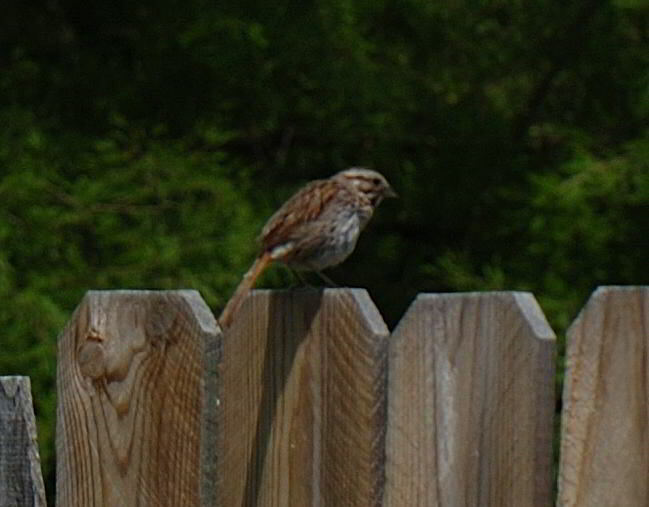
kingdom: Animalia
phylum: Chordata
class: Aves
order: Passeriformes
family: Passerellidae
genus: Melospiza
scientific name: Melospiza melodia
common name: Song sparrow
